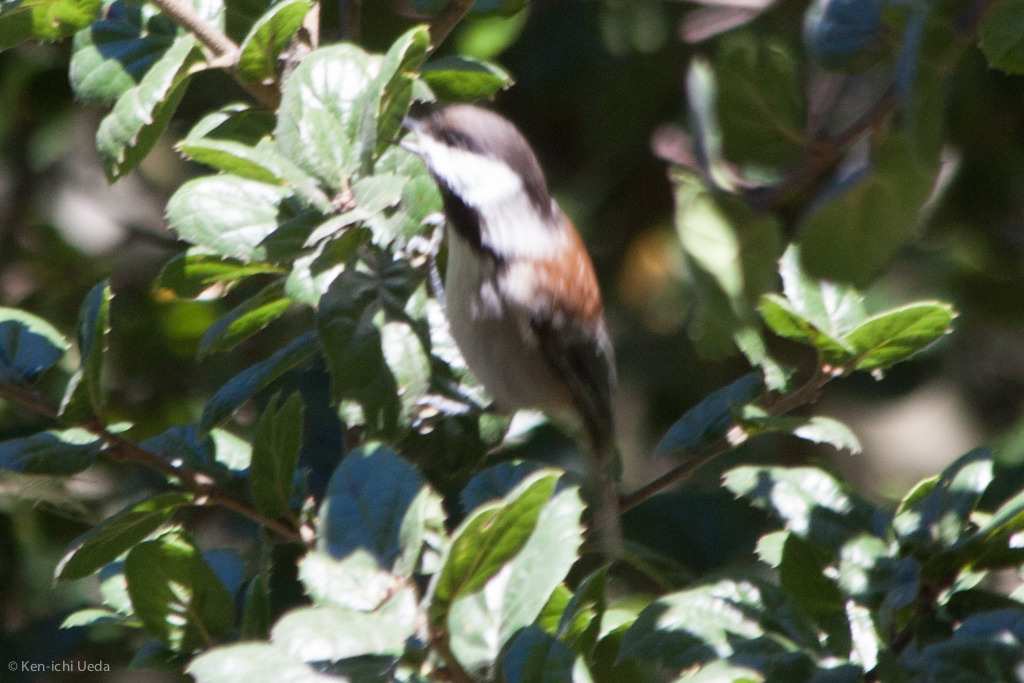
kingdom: Animalia
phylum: Chordata
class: Aves
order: Passeriformes
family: Paridae
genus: Poecile
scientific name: Poecile rufescens
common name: Chestnut-backed chickadee
